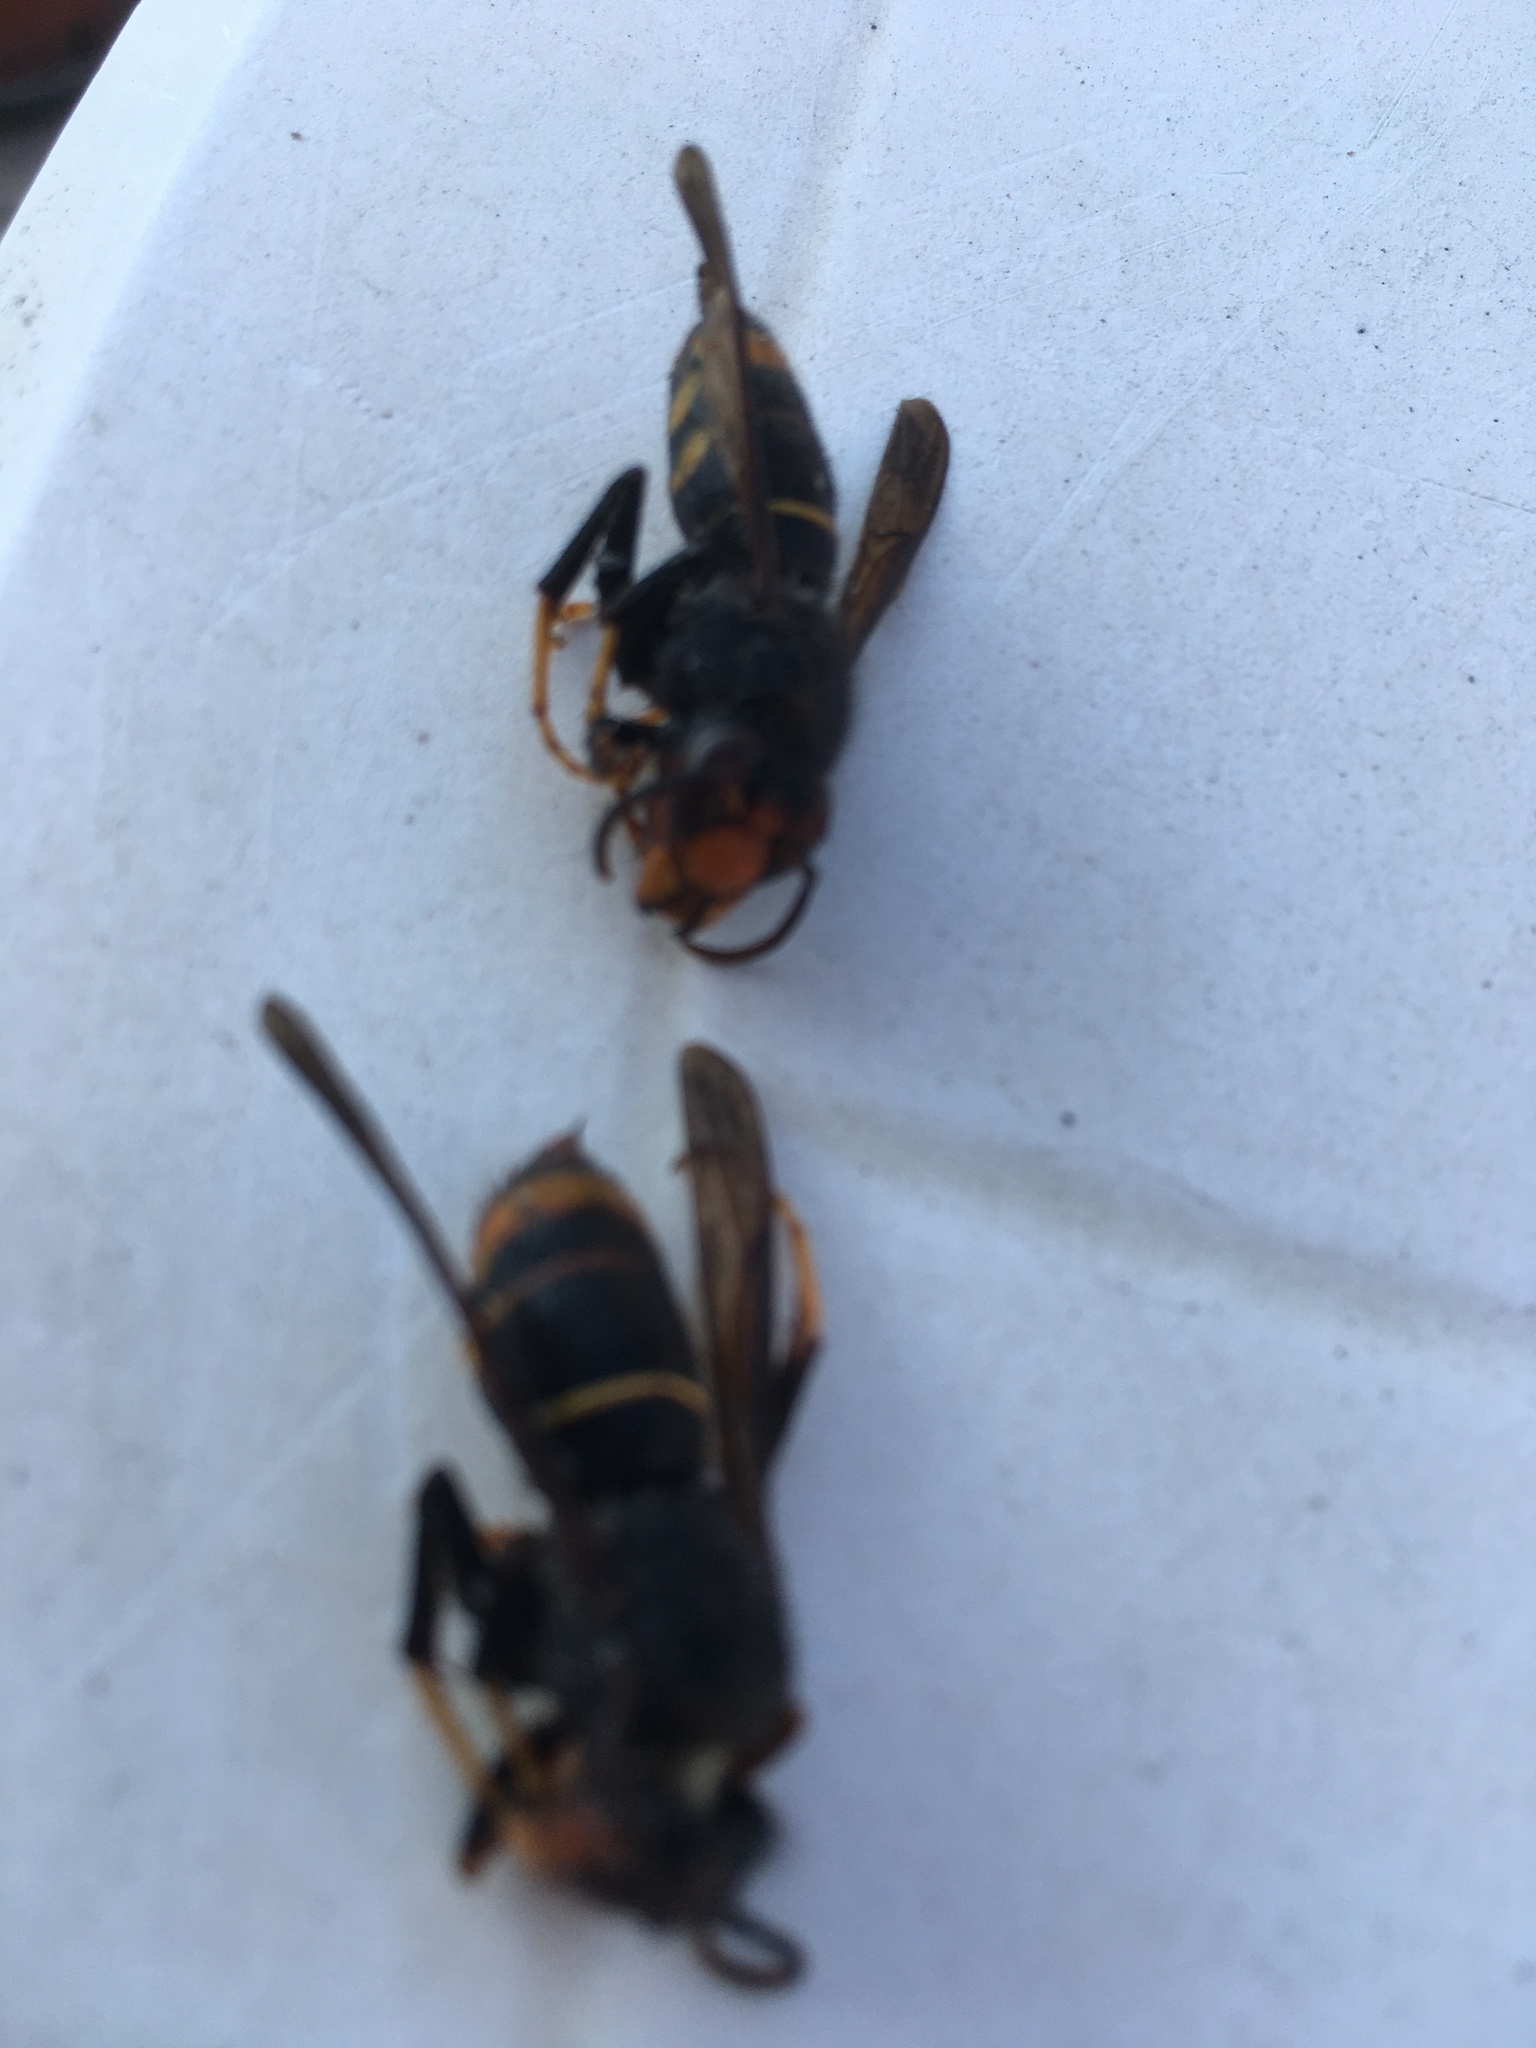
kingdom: Animalia
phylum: Arthropoda
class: Insecta
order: Hymenoptera
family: Vespidae
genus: Vespa
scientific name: Vespa velutina
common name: Asian hornet
